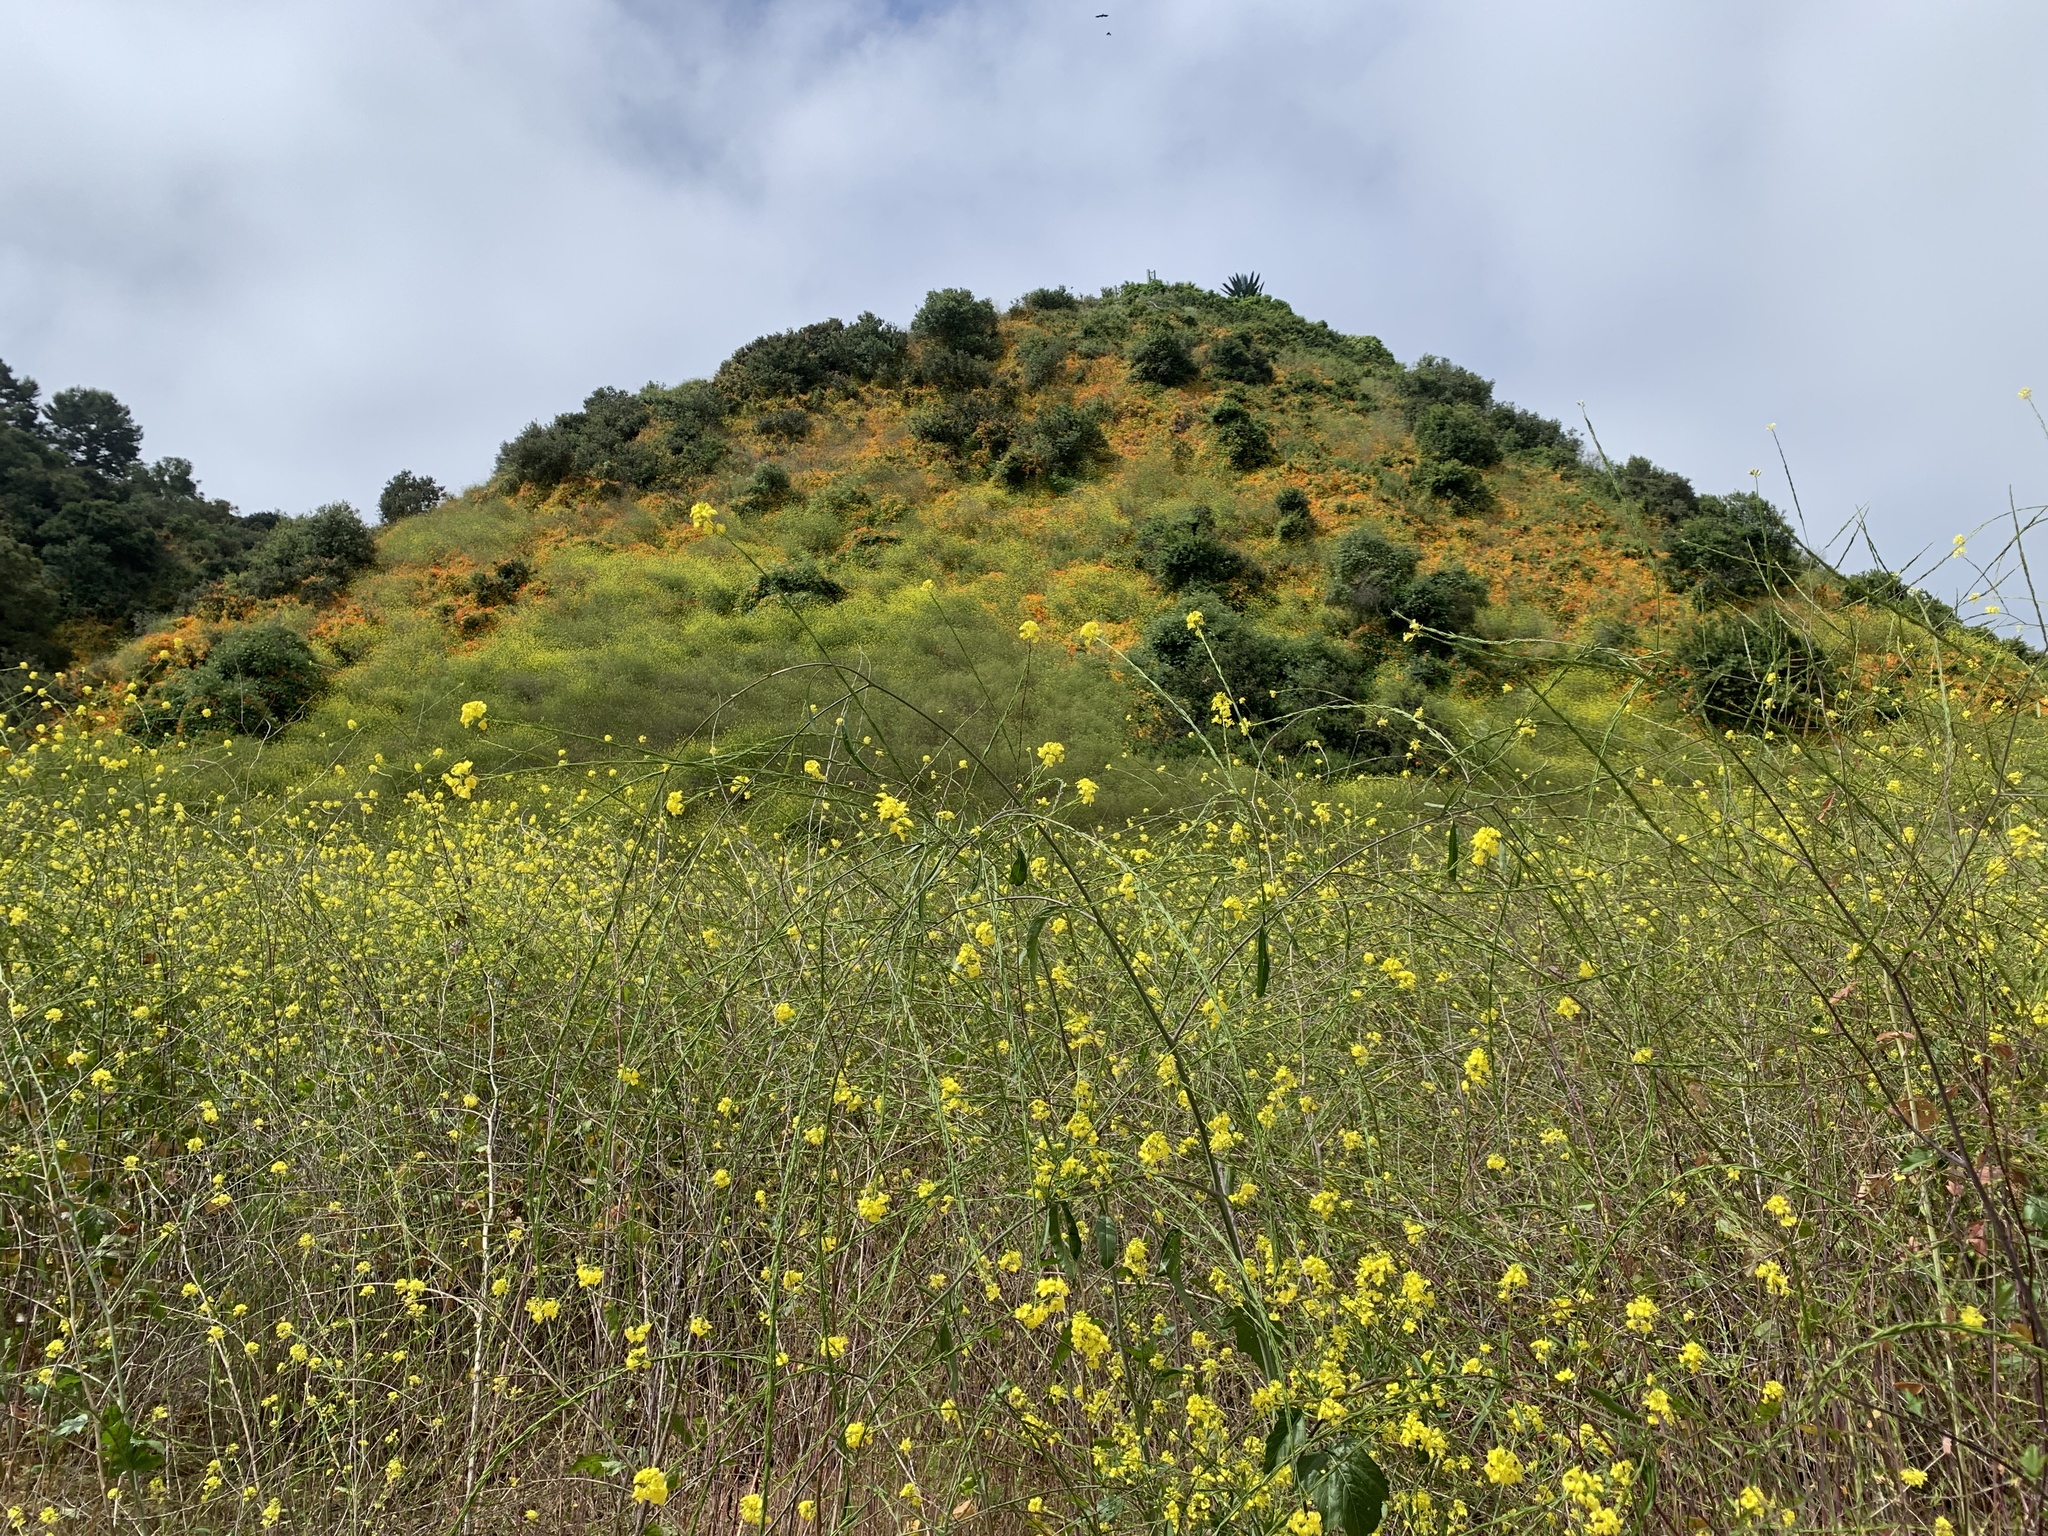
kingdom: Plantae
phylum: Tracheophyta
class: Magnoliopsida
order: Brassicales
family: Brassicaceae
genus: Brassica
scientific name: Brassica nigra
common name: Black mustard
